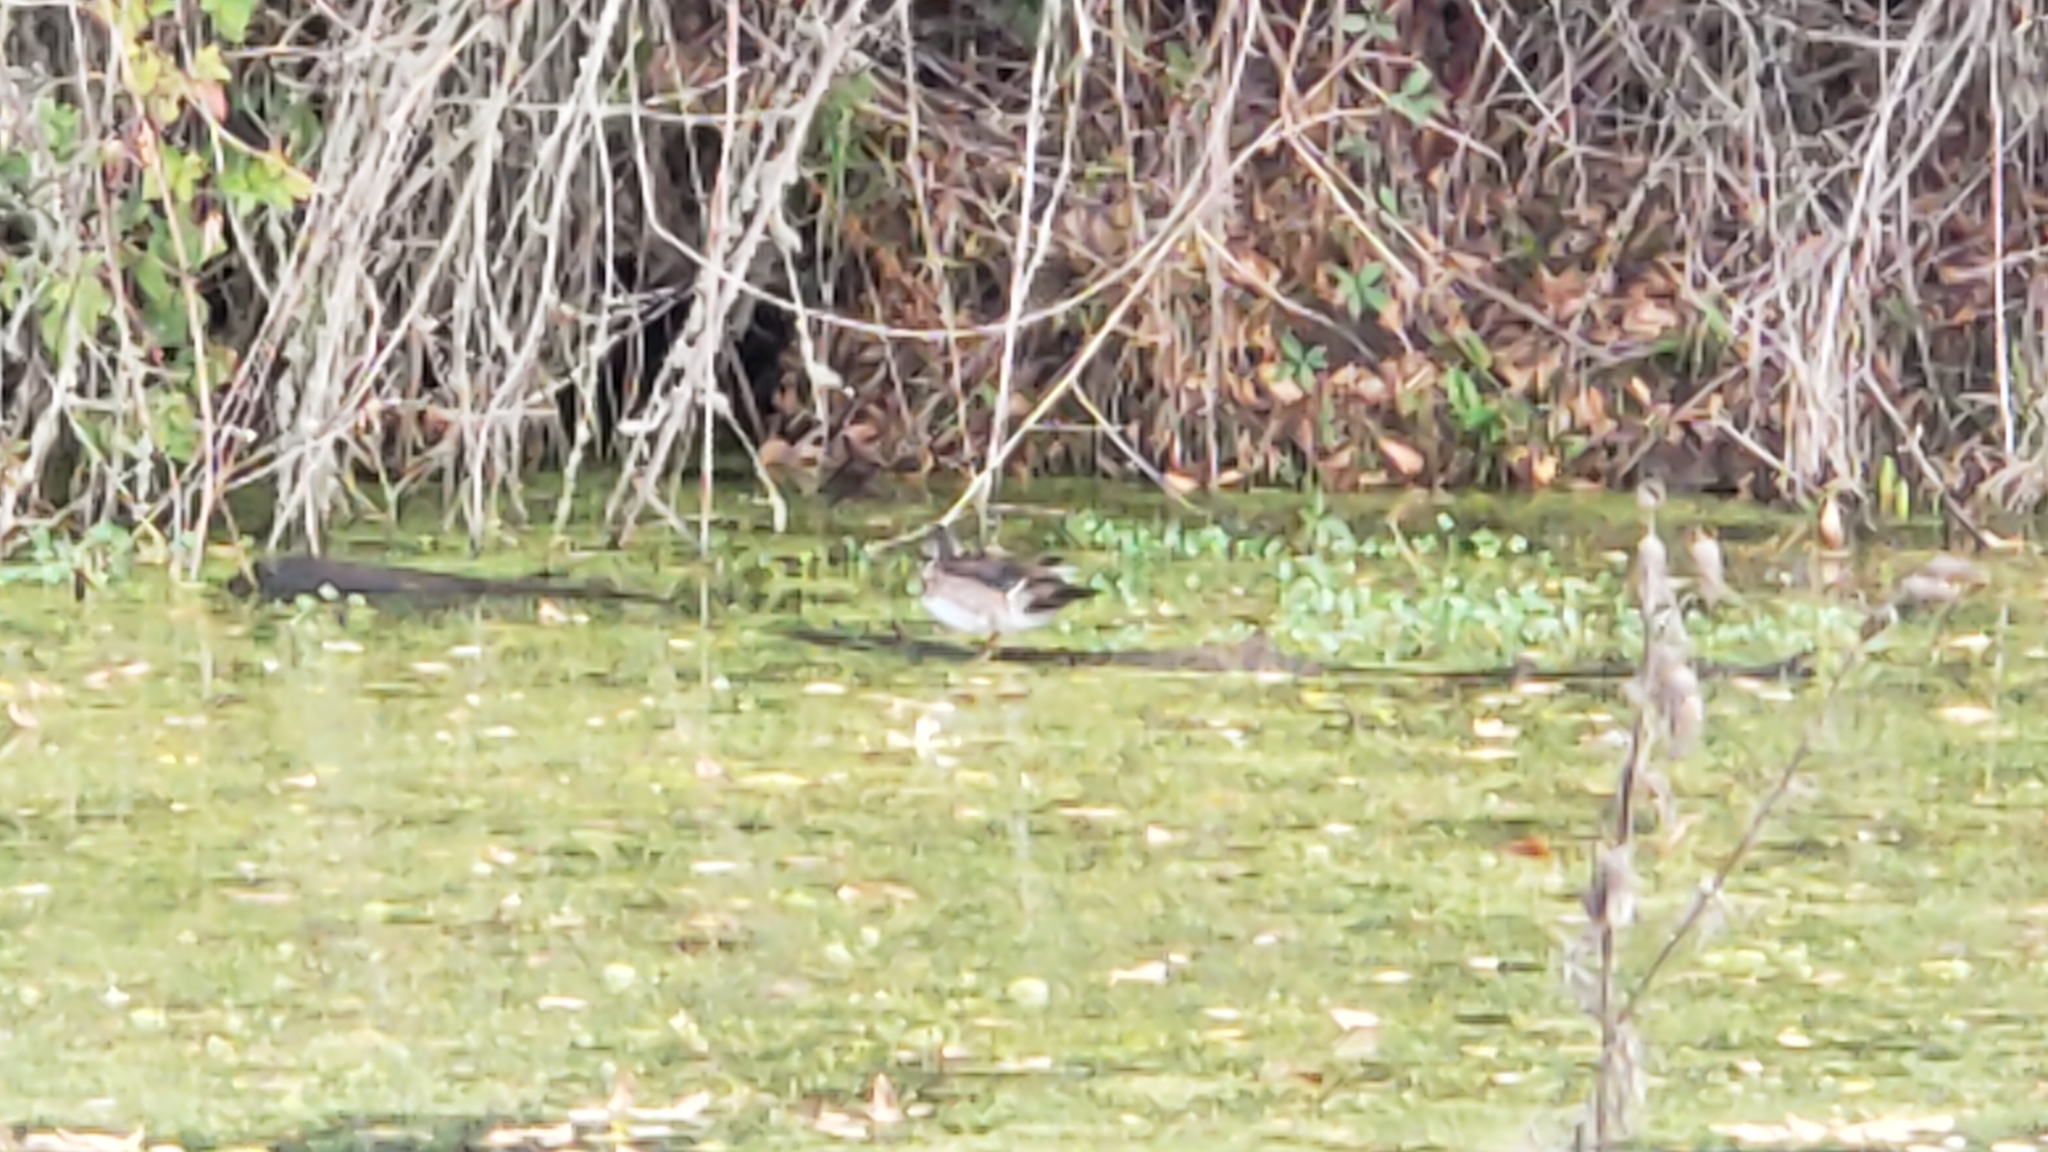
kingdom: Animalia
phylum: Chordata
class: Aves
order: Anseriformes
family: Anatidae
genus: Aix
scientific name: Aix sponsa
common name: Wood duck
